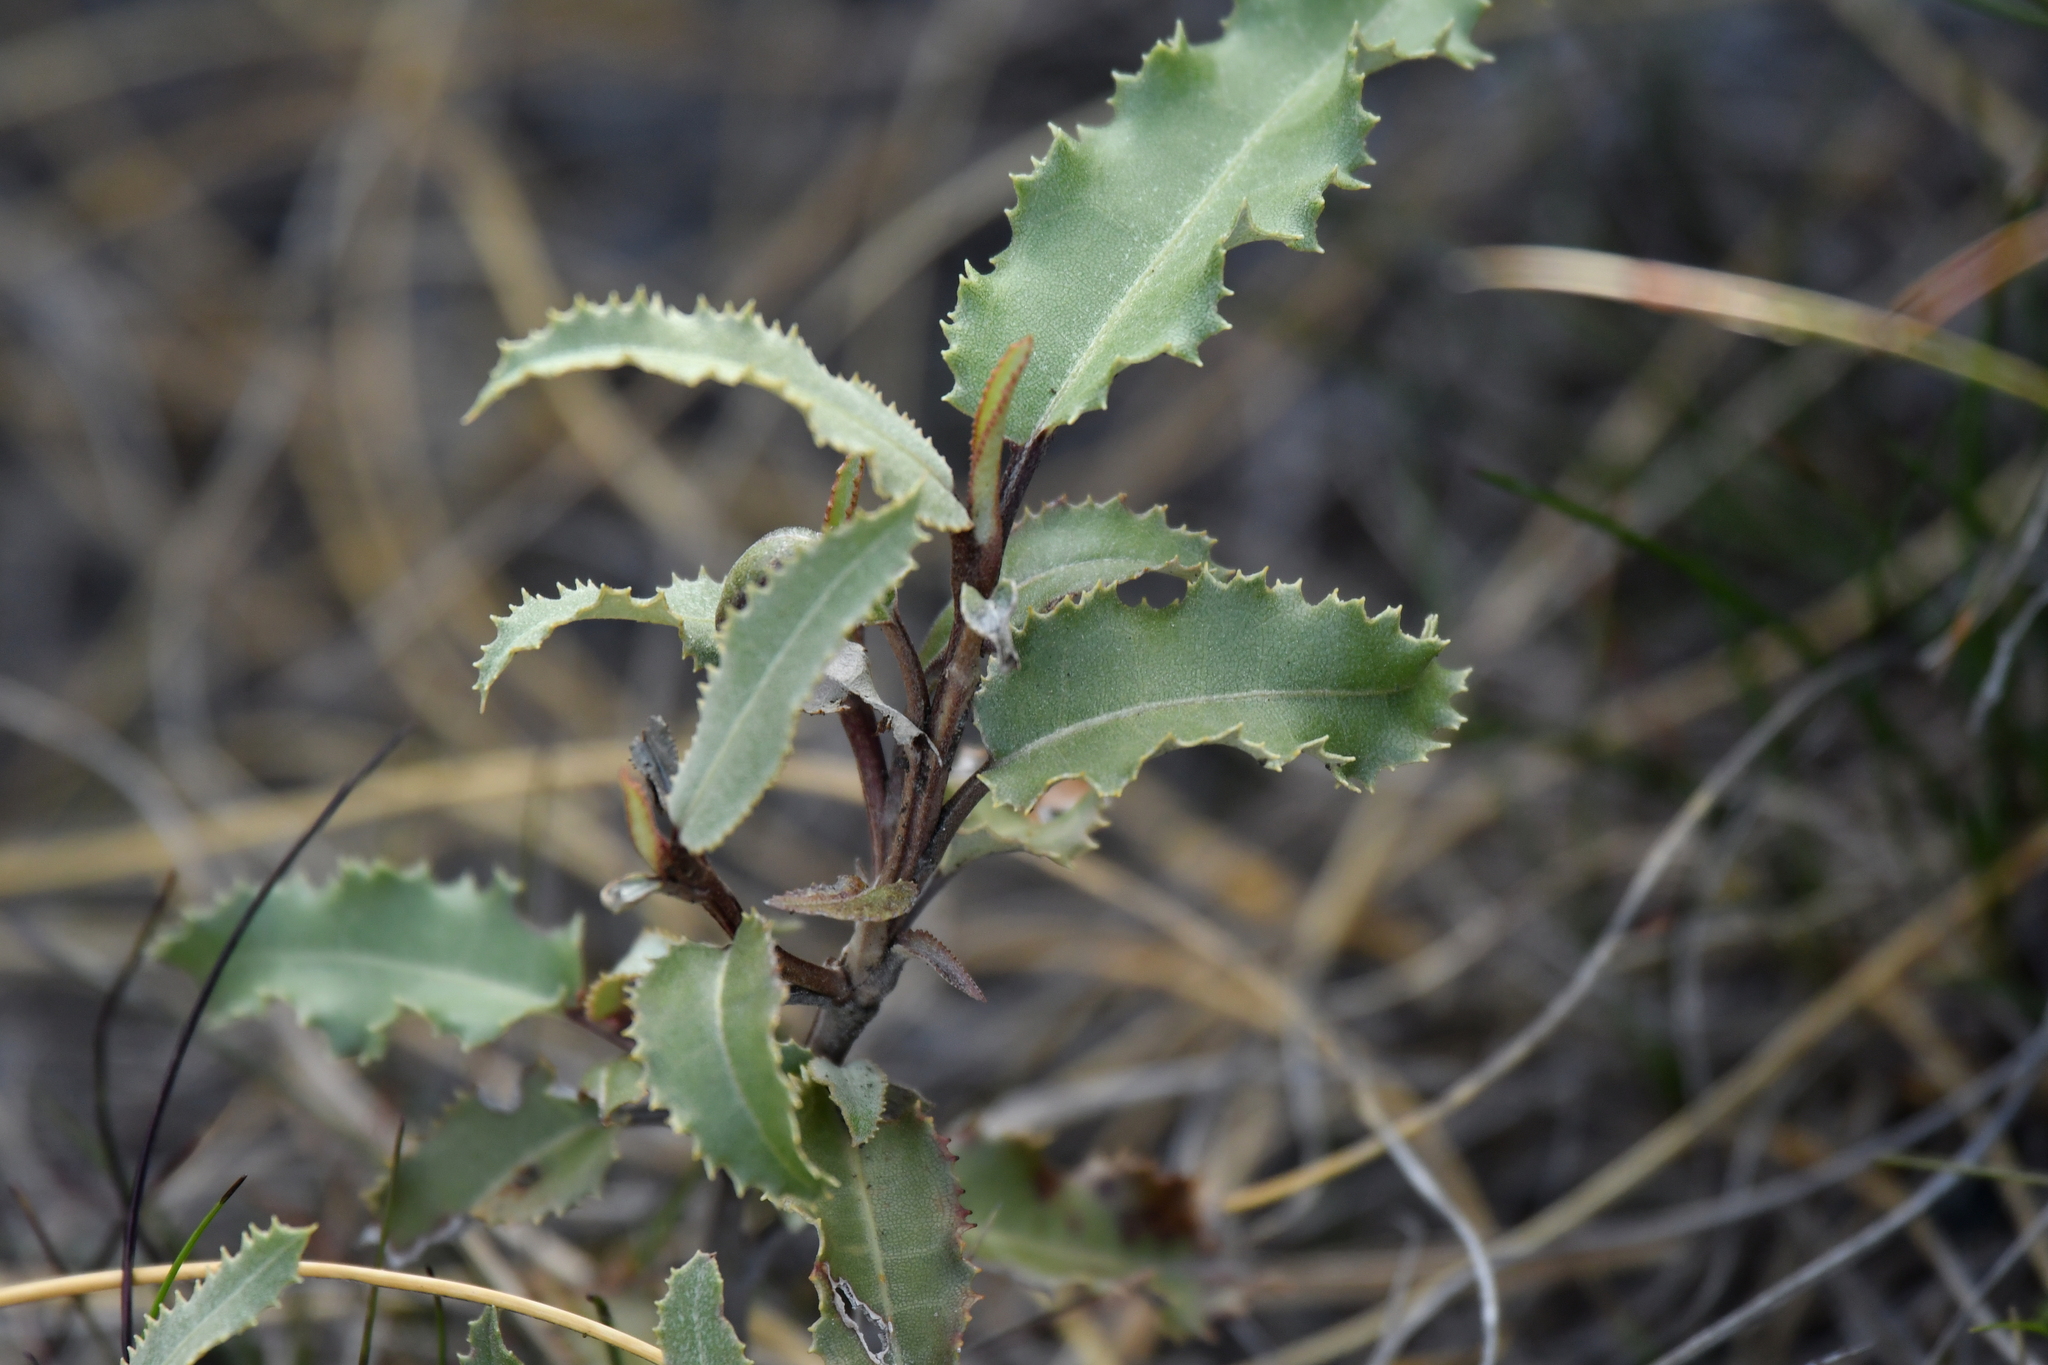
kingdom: Plantae
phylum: Tracheophyta
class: Magnoliopsida
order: Asterales
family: Asteraceae
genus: Olearia
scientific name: Olearia ilicifolia
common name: Maori-holly
